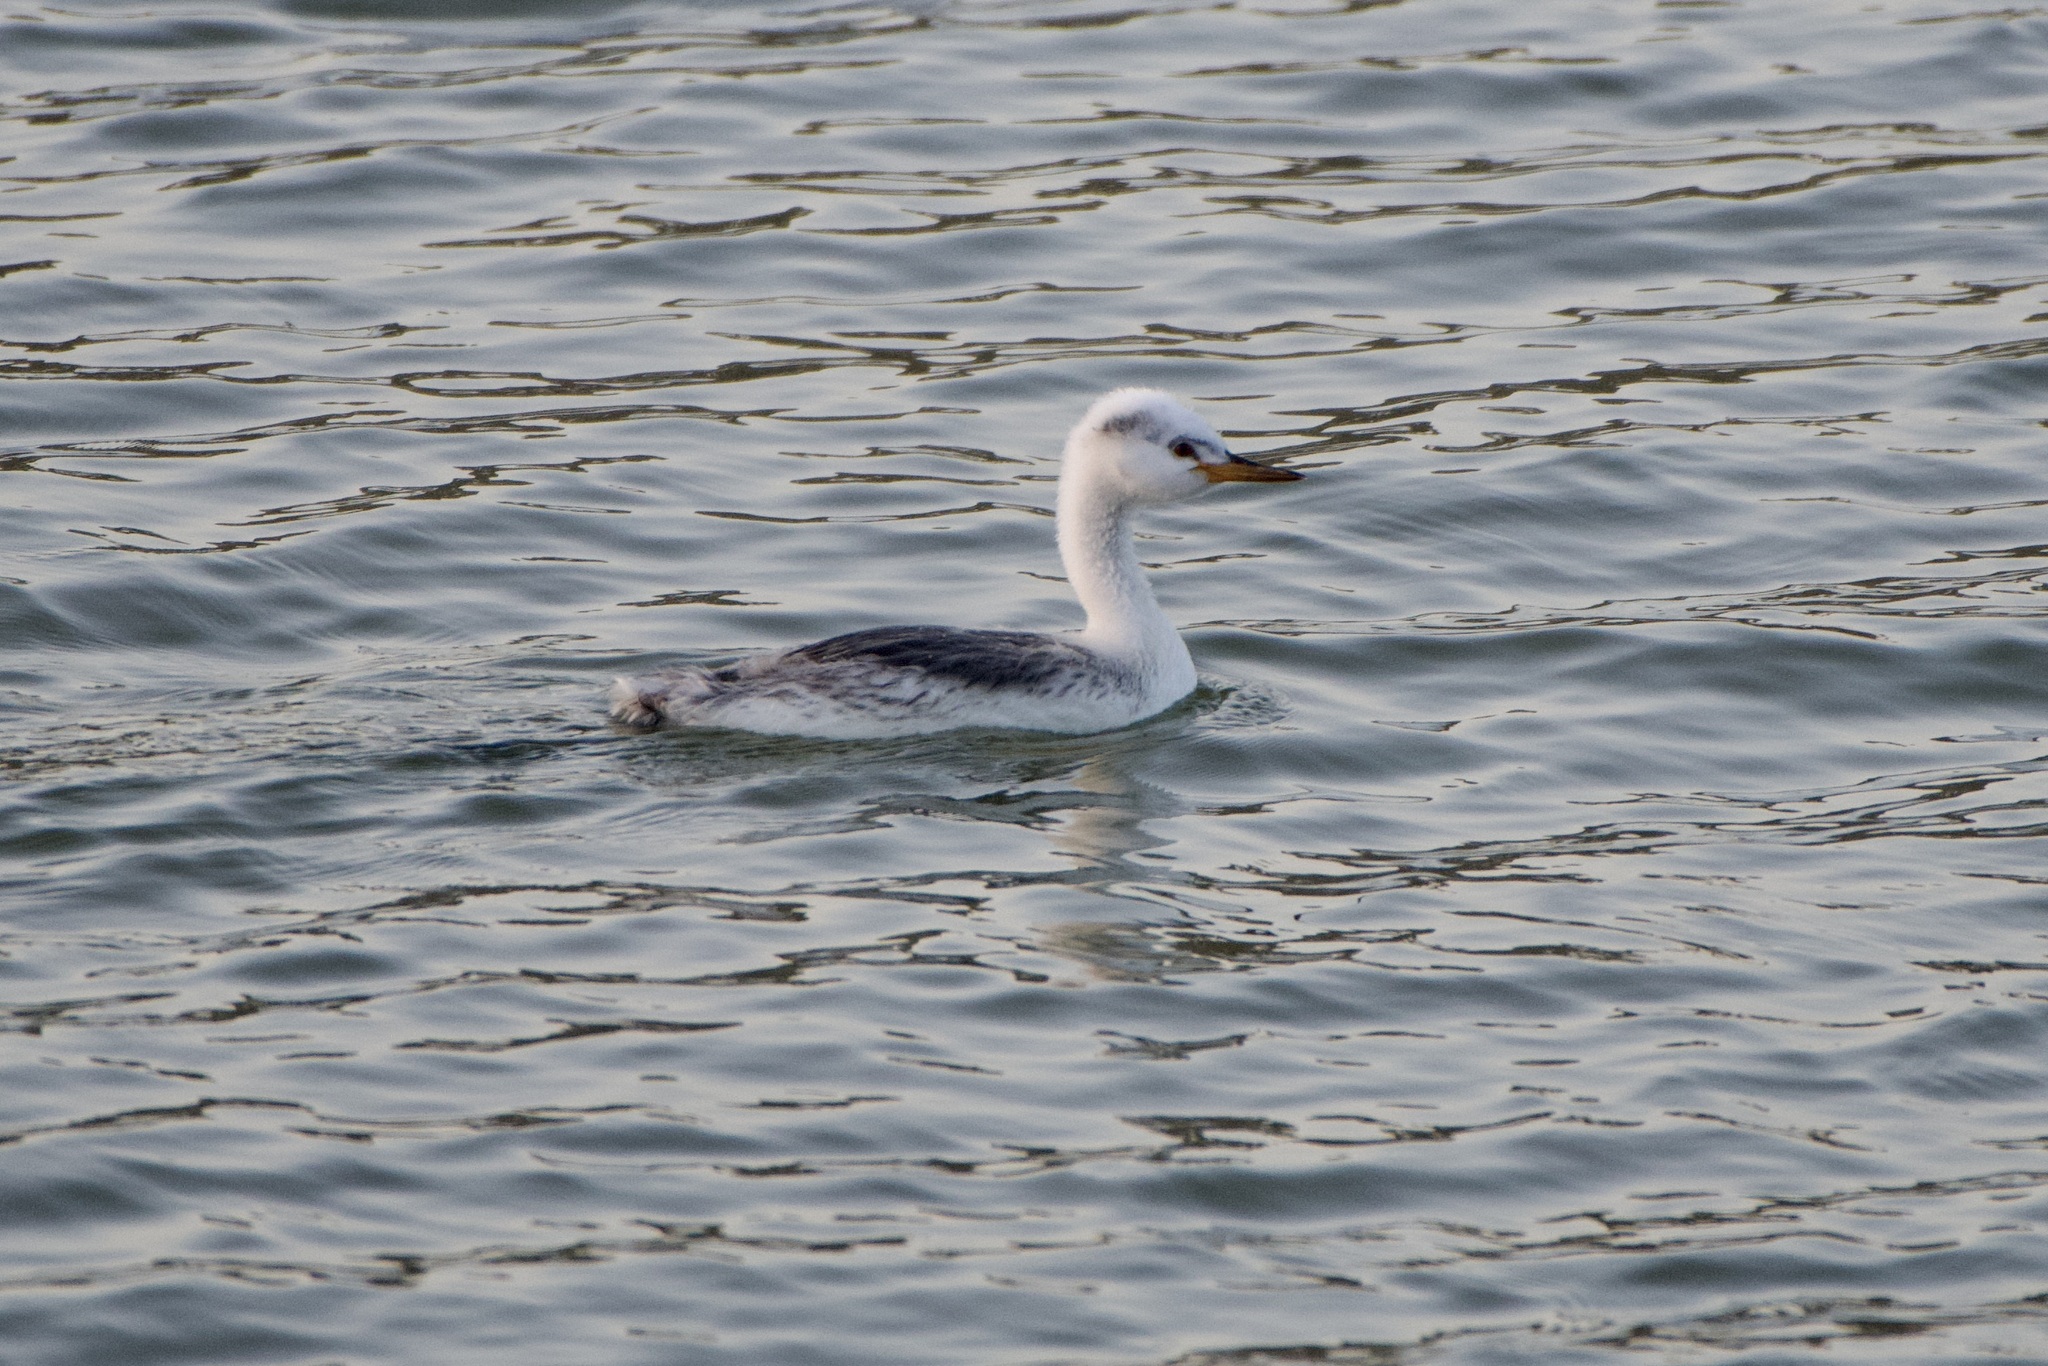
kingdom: Animalia
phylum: Chordata
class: Aves
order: Podicipediformes
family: Podicipedidae
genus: Aechmophorus
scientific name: Aechmophorus clarkii
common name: Clark's grebe
